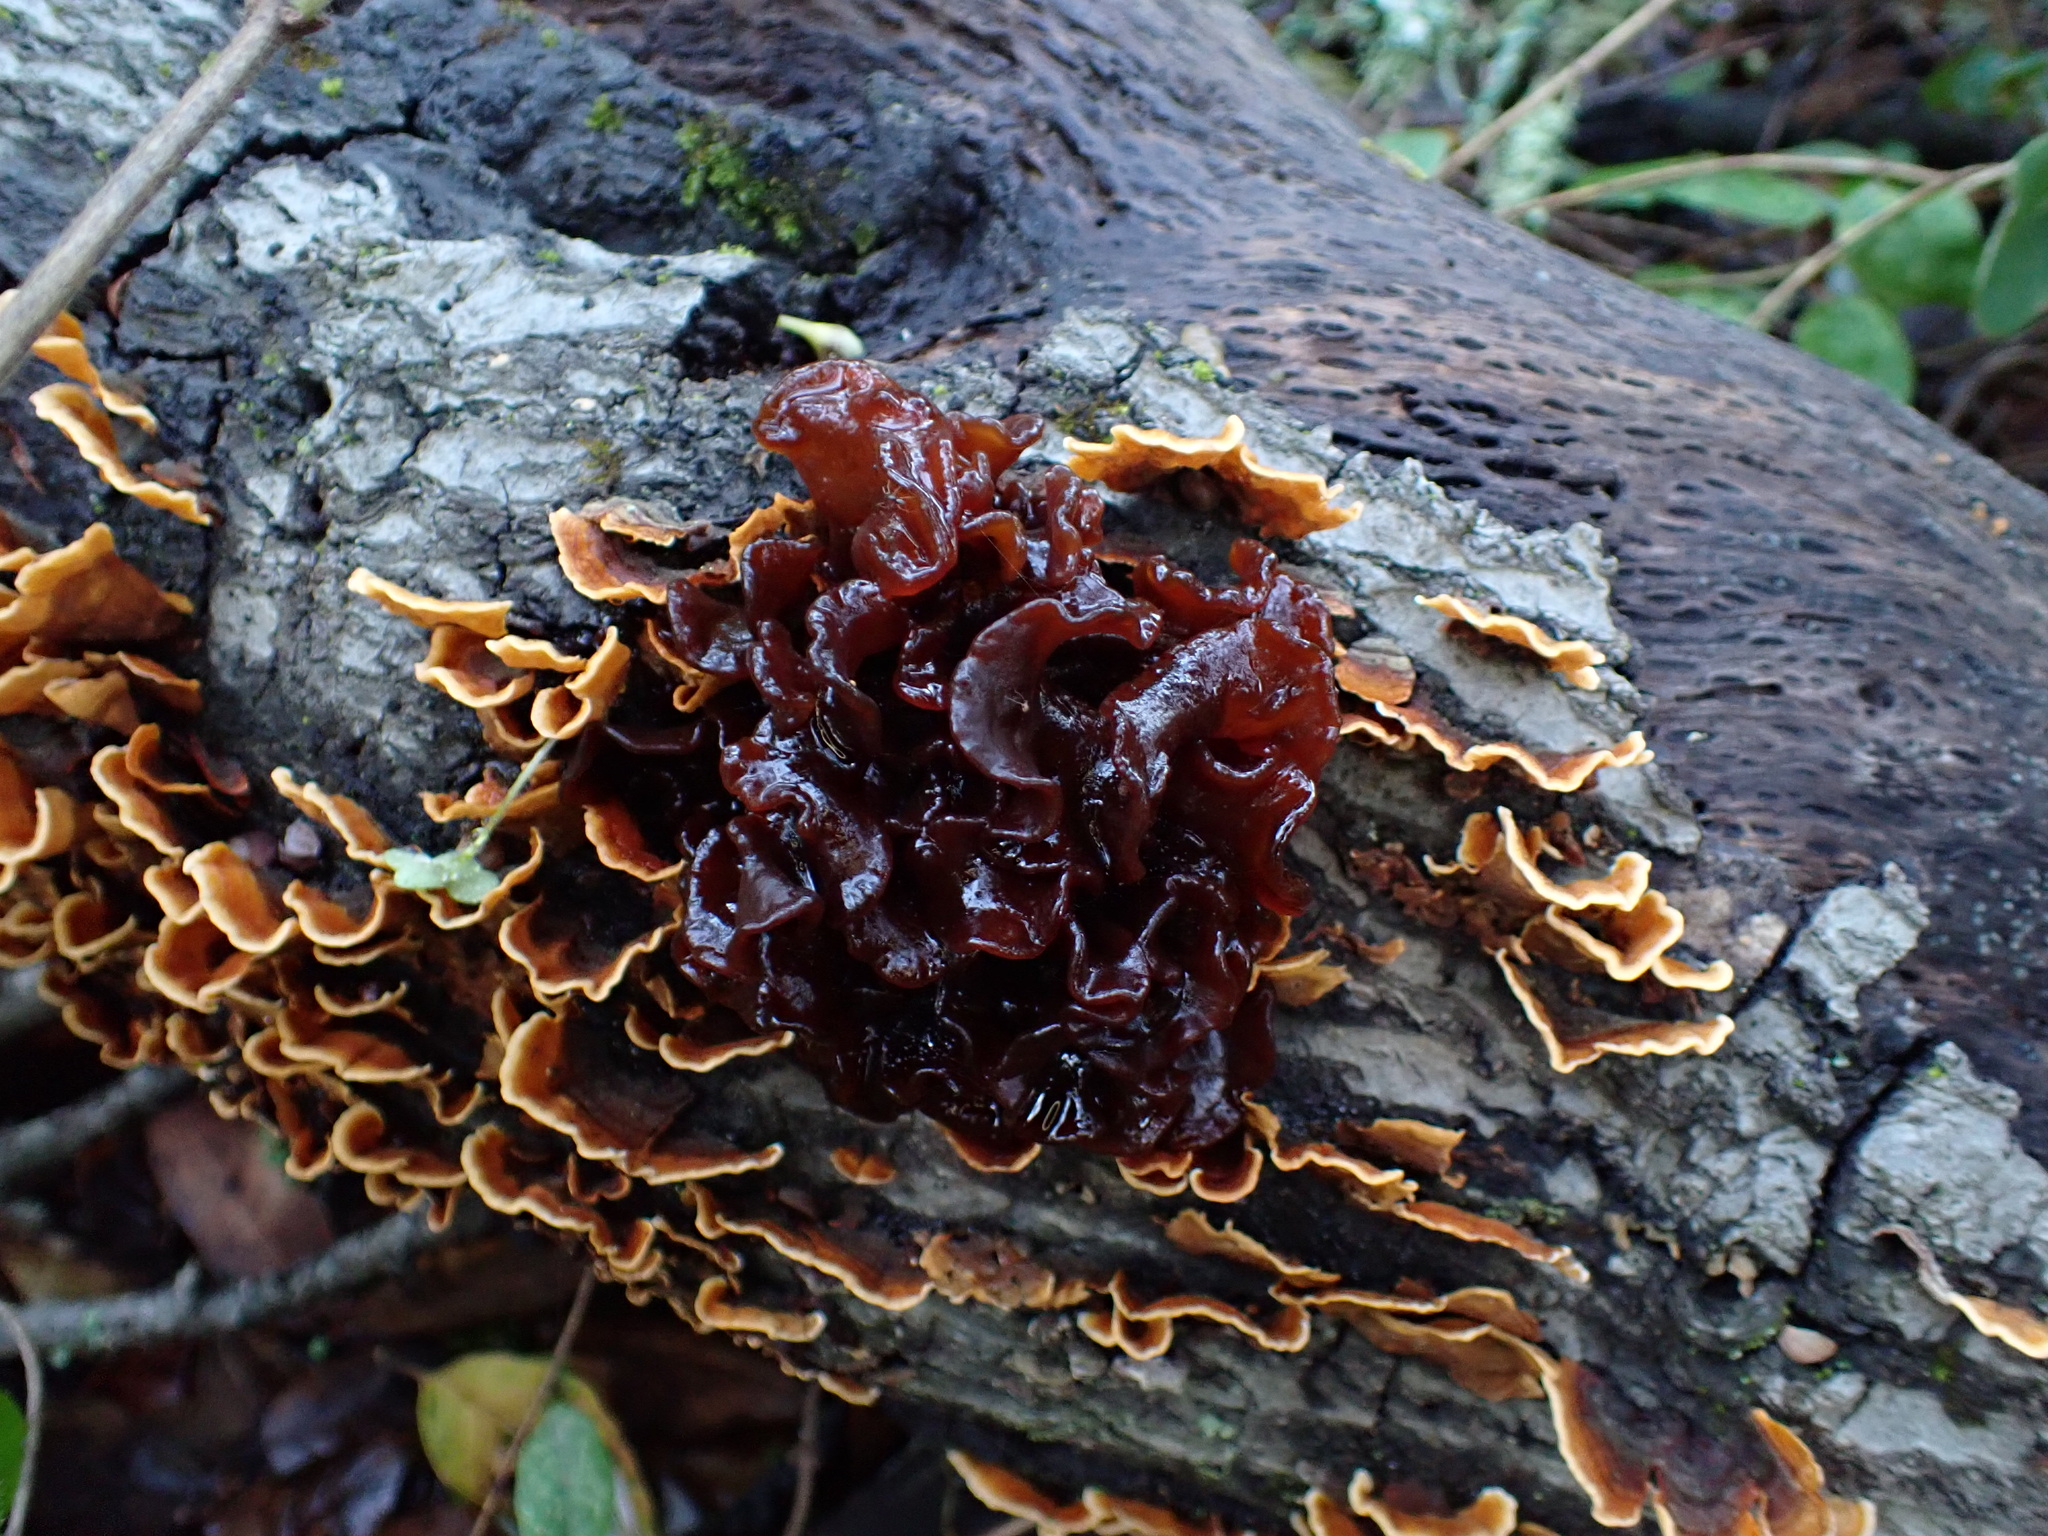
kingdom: Fungi
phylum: Basidiomycota
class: Tremellomycetes
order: Tremellales
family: Tremellaceae
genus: Phaeotremella
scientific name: Phaeotremella foliacea
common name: Leafy brain
